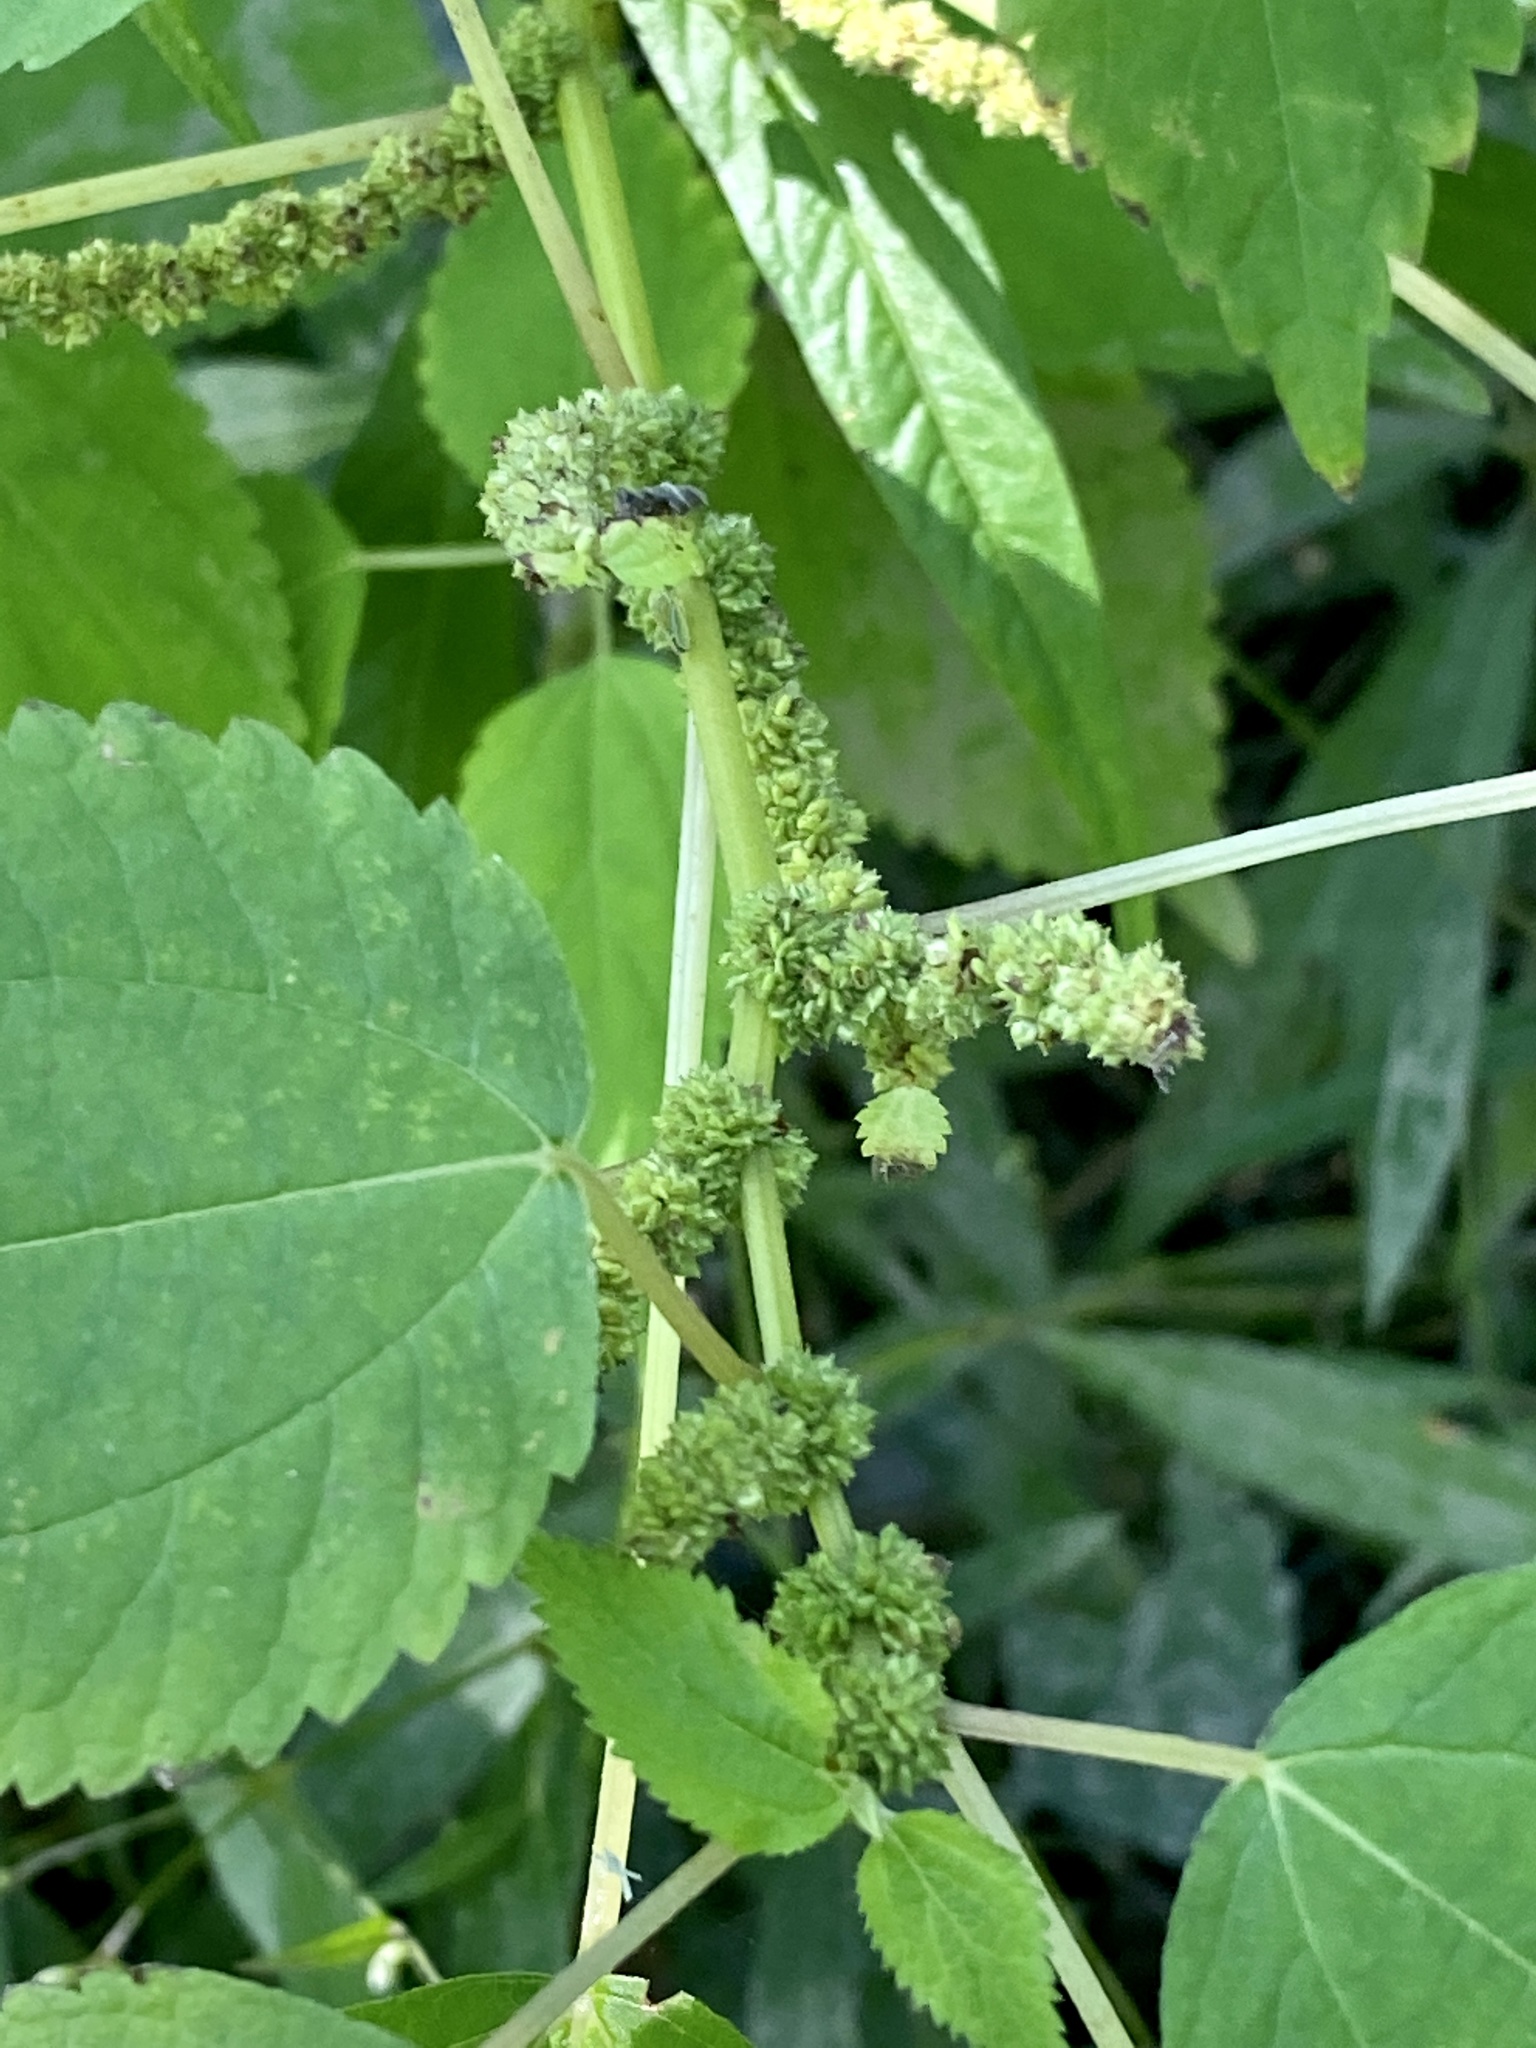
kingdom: Plantae
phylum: Tracheophyta
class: Magnoliopsida
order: Rosales
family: Urticaceae
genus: Boehmeria
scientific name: Boehmeria cylindrica
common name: Bog-hemp
